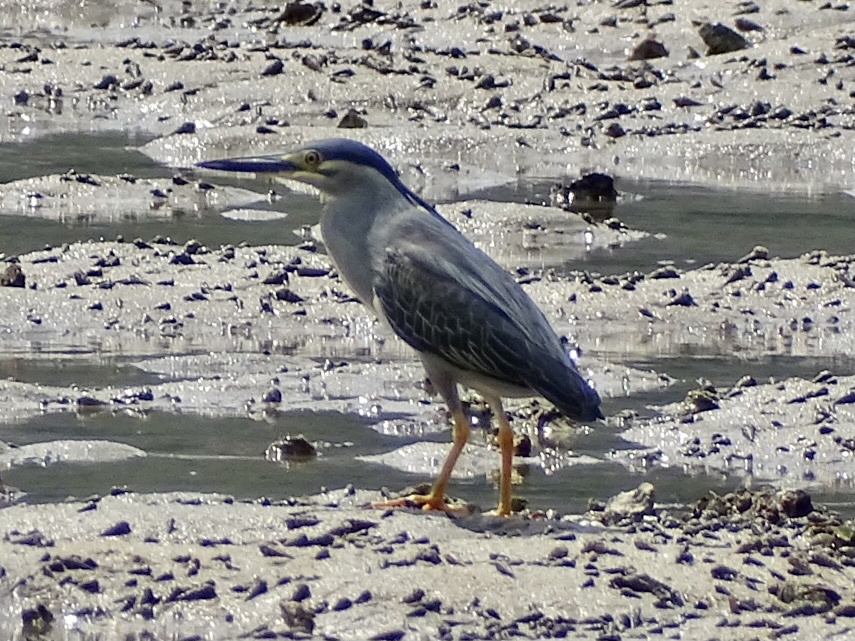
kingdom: Animalia
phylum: Chordata
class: Aves
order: Pelecaniformes
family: Ardeidae
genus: Butorides
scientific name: Butorides striata
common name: Striated heron
